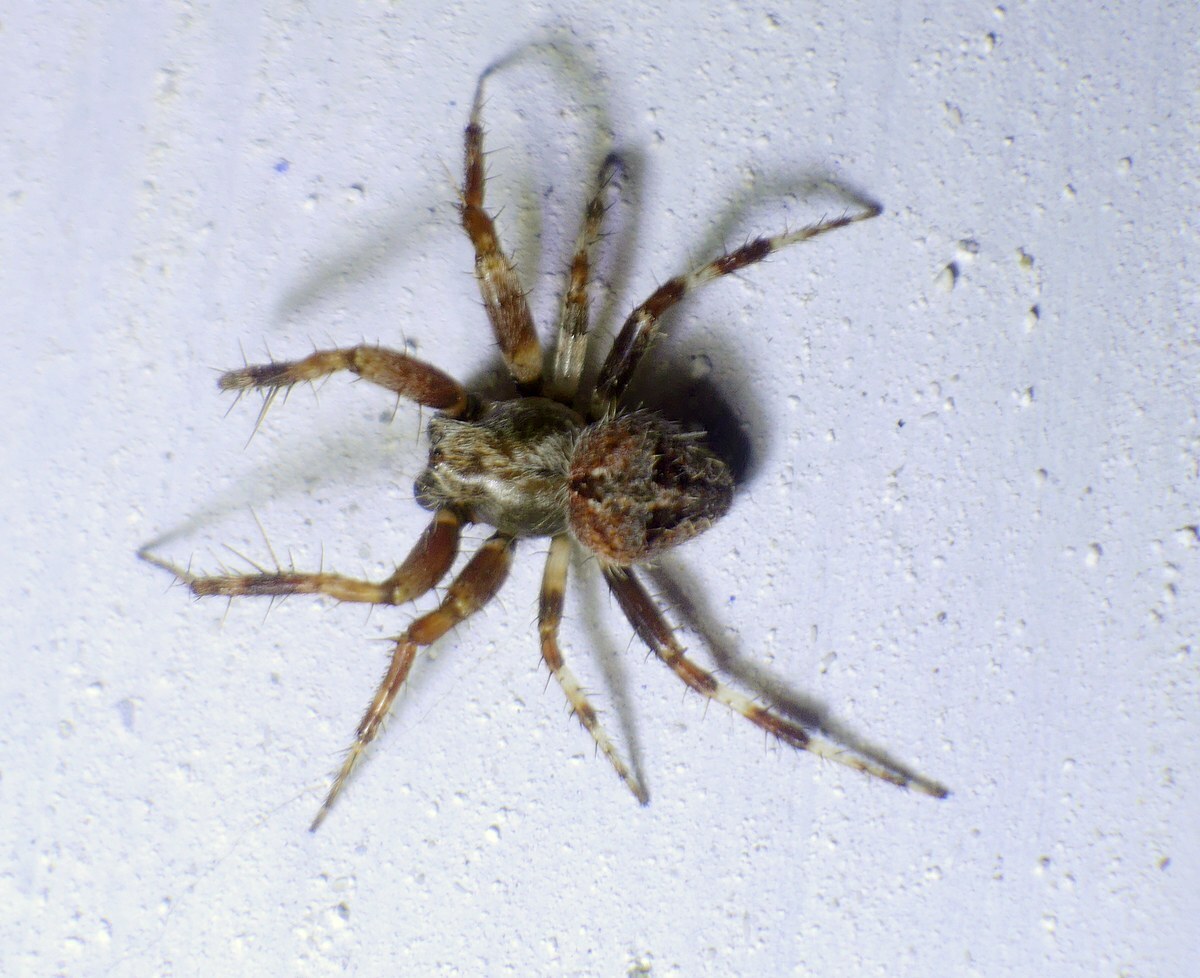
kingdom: Animalia
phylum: Arthropoda
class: Arachnida
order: Araneae
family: Araneidae
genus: Neoscona
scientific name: Neoscona subfusca
